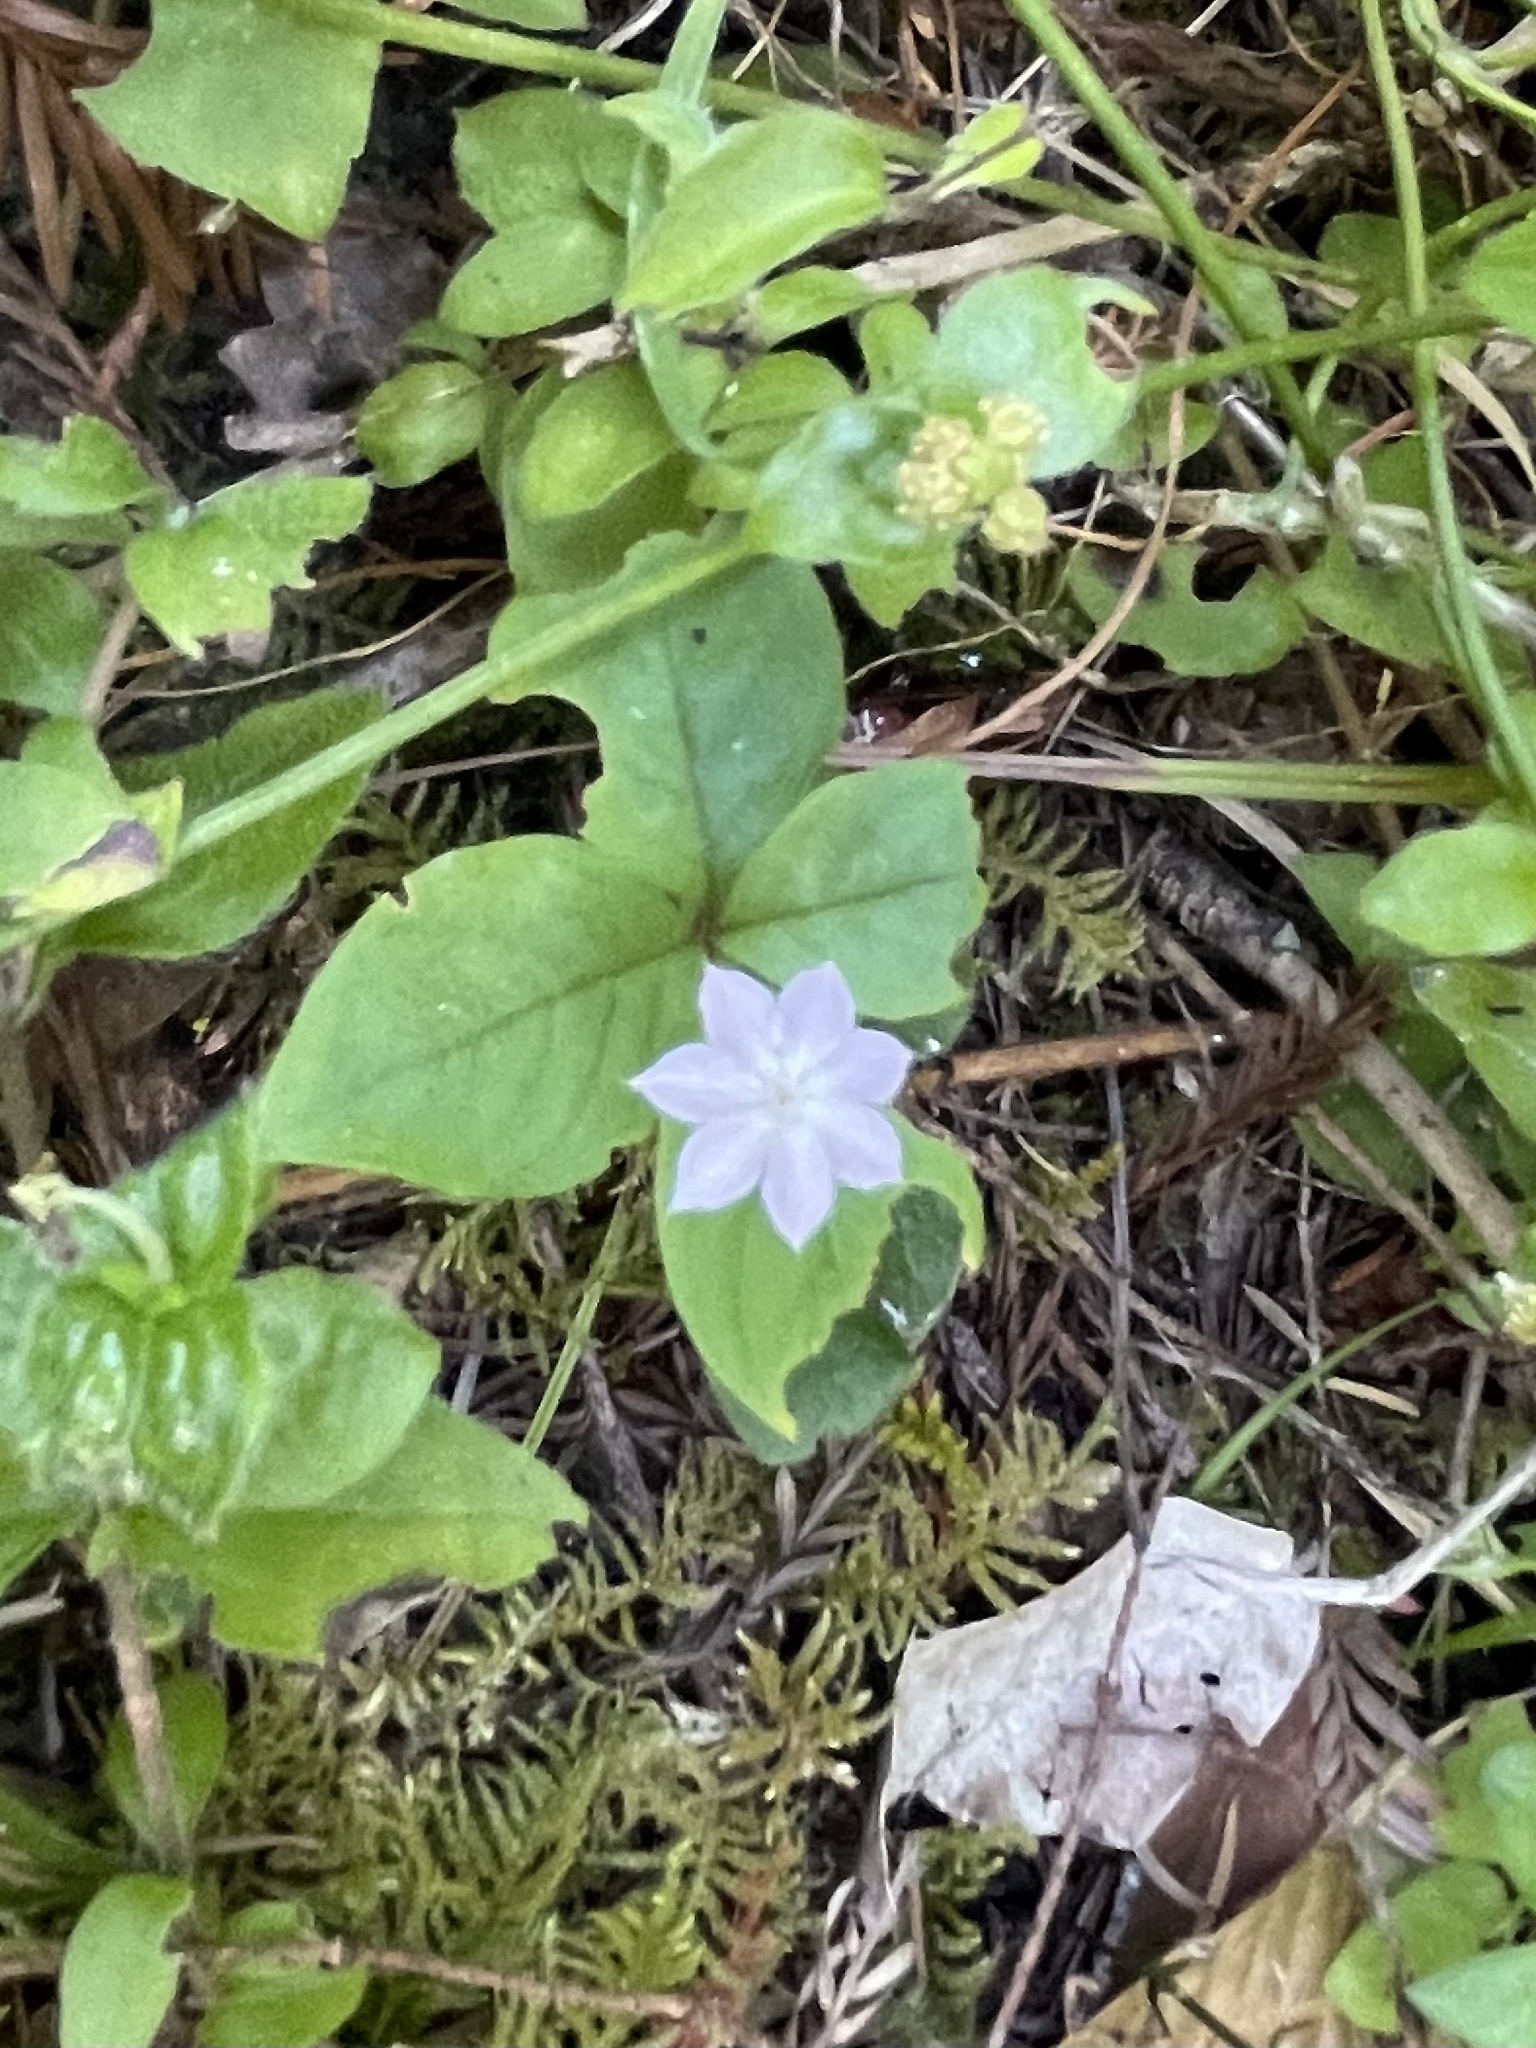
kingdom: Plantae
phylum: Tracheophyta
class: Magnoliopsida
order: Ericales
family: Primulaceae
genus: Lysimachia
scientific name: Lysimachia latifolia
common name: Pacific starflower
